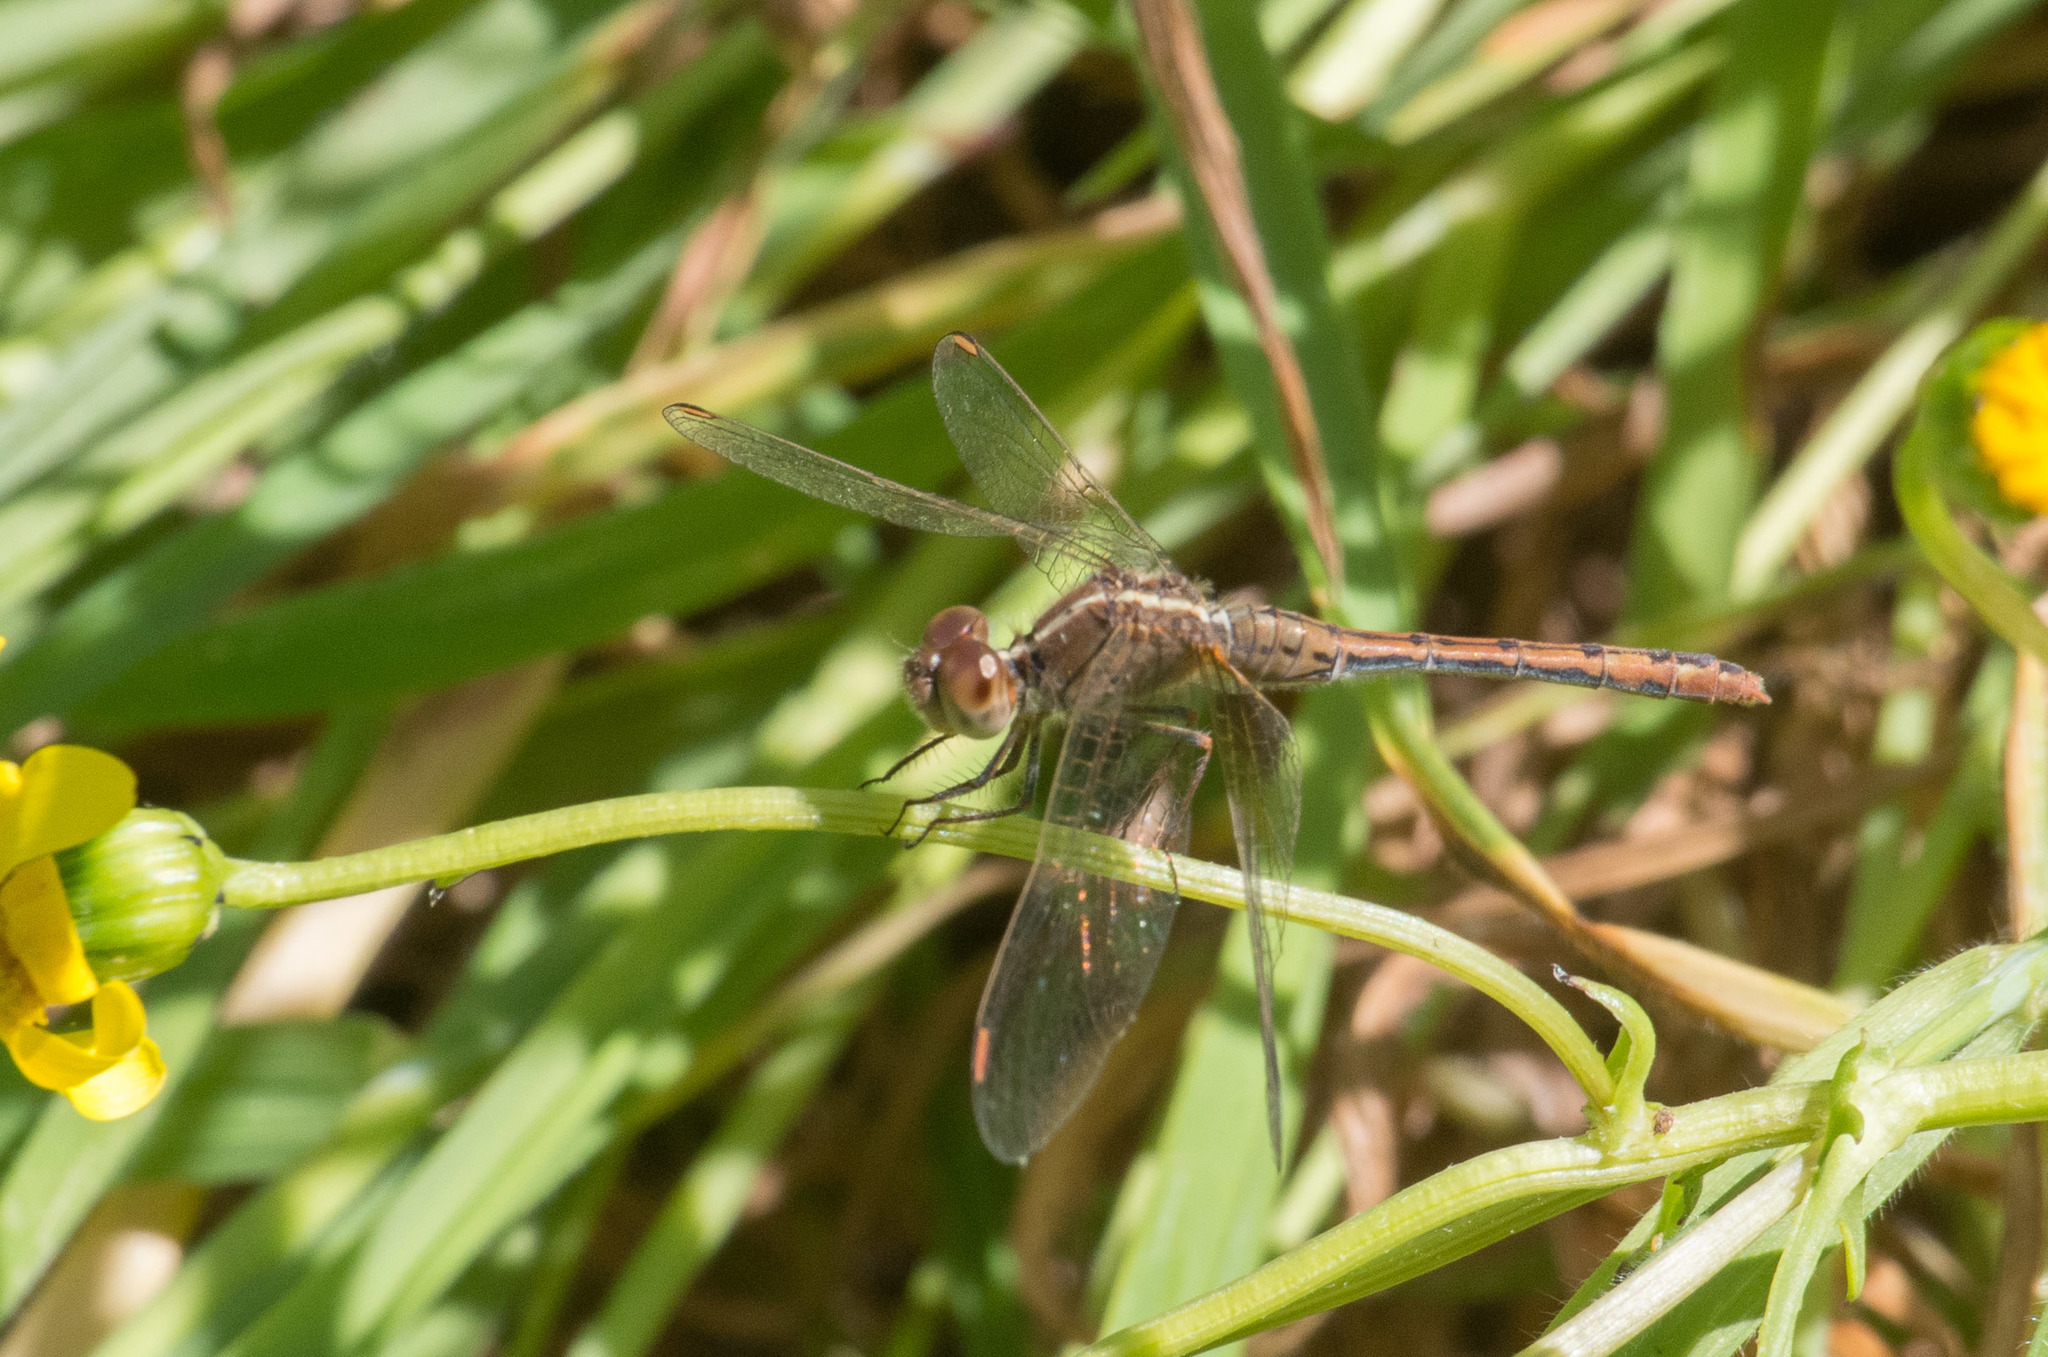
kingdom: Animalia
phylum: Arthropoda
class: Insecta
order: Odonata
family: Libellulidae
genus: Diplacodes
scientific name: Diplacodes bipunctata
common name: Red percher dragonfly
